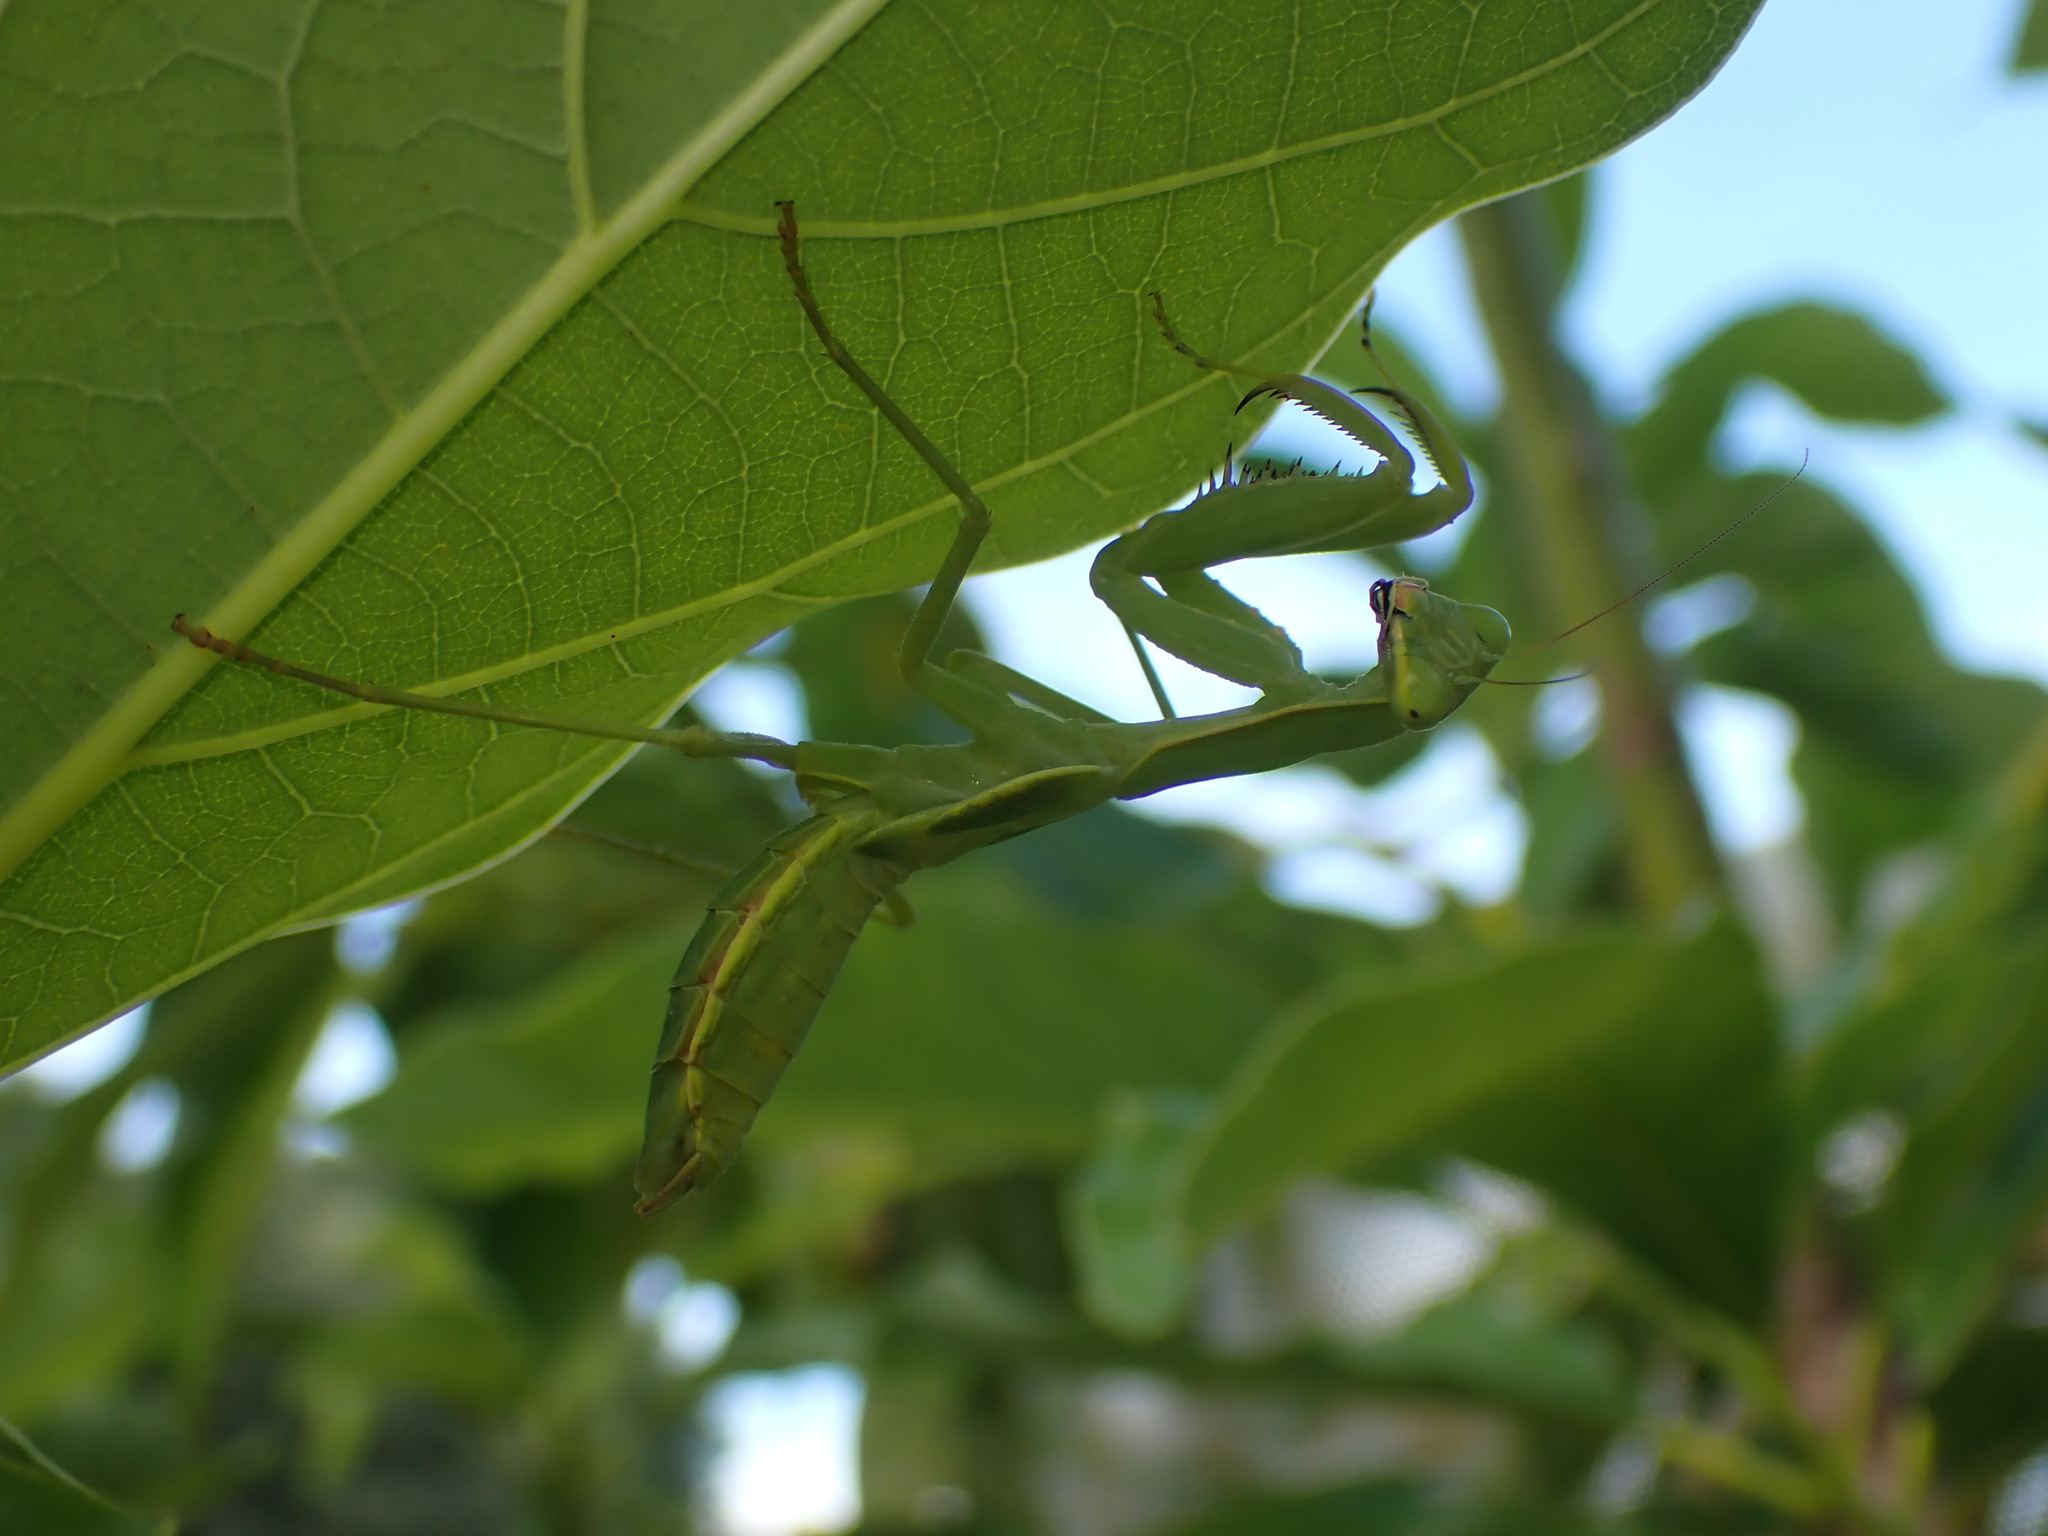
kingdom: Animalia
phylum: Arthropoda
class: Insecta
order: Mantodea
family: Mantidae
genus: Hierodula
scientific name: Hierodula patellifera
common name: Asian mantis
